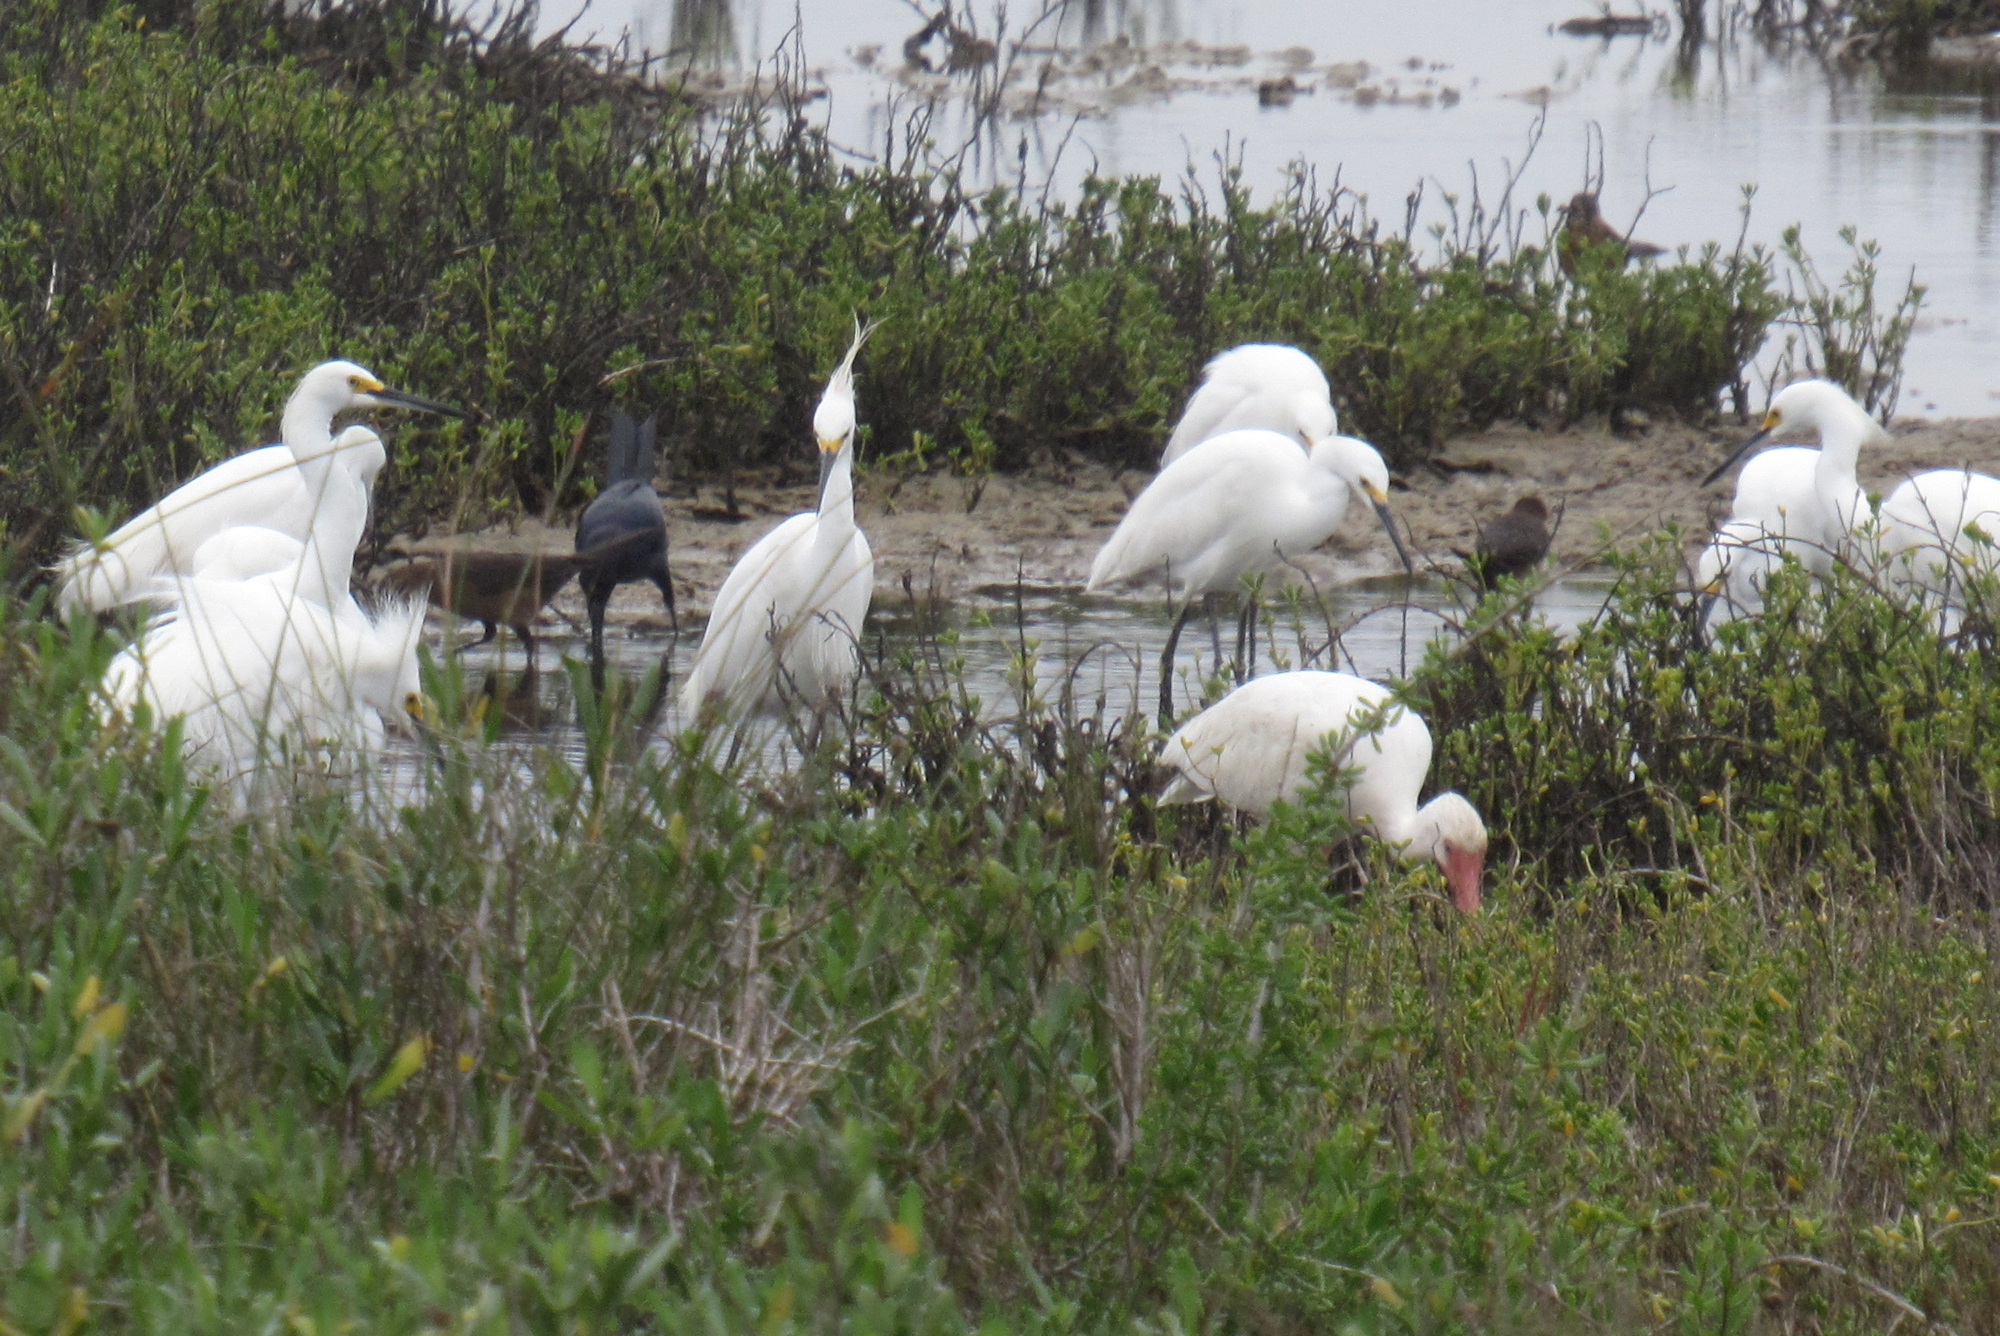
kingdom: Animalia
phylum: Chordata
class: Aves
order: Pelecaniformes
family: Ardeidae
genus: Egretta
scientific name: Egretta thula
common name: Snowy egret
